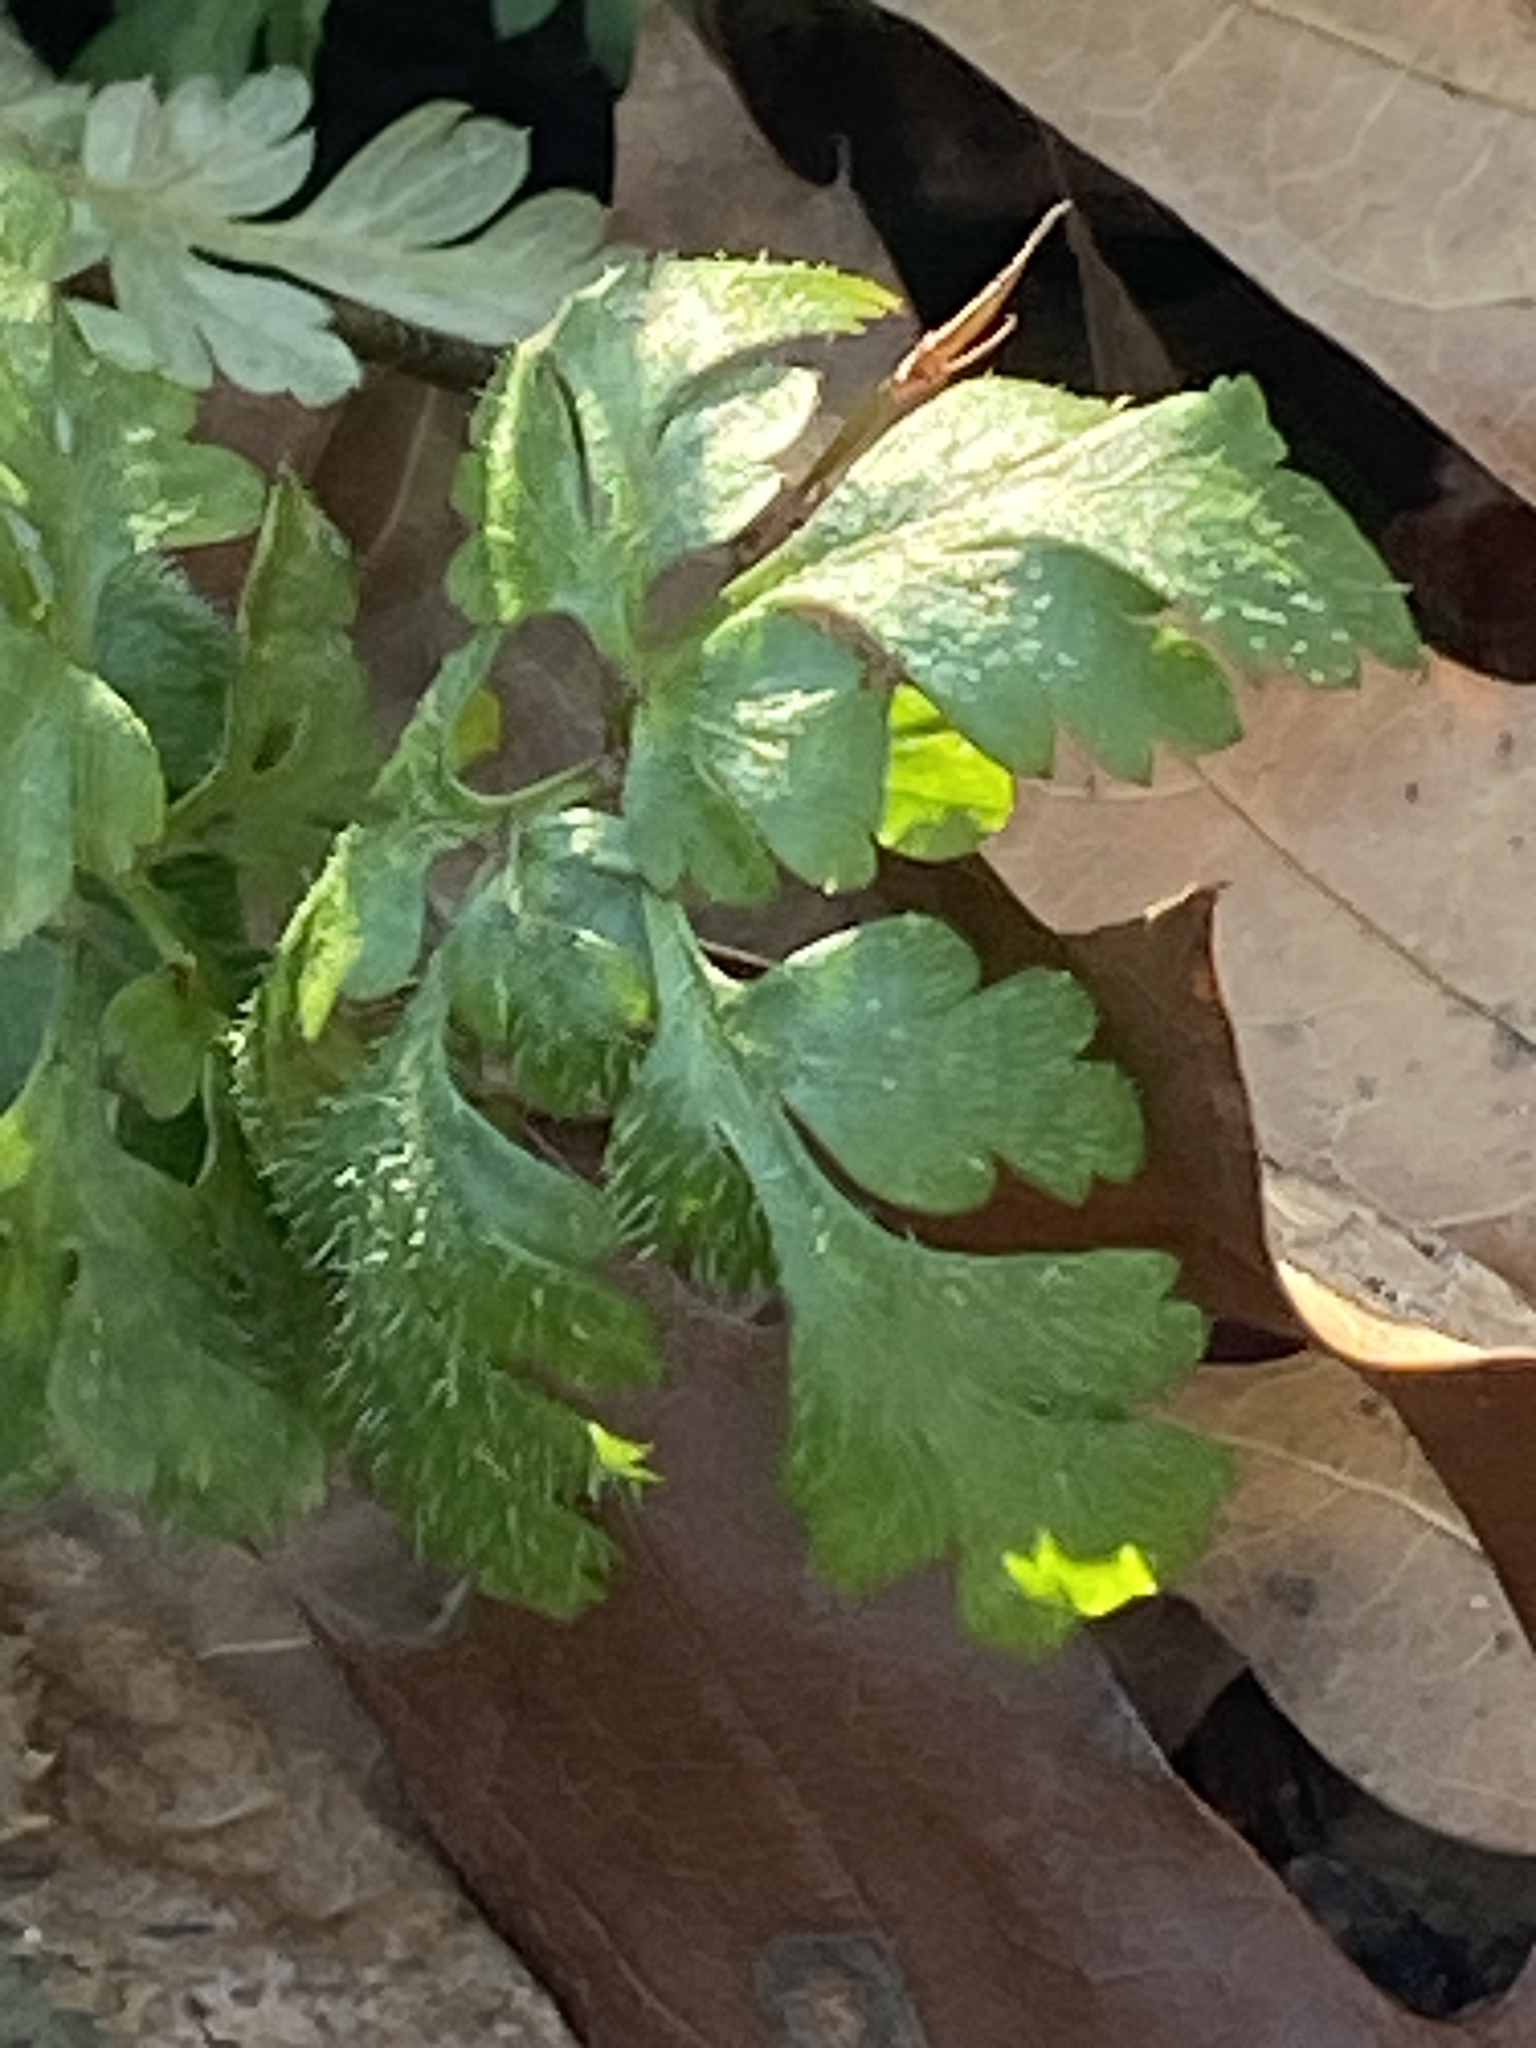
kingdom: Plantae
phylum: Tracheophyta
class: Magnoliopsida
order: Geraniales
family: Geraniaceae
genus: Geranium
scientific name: Geranium robertianum
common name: Herb-robert
